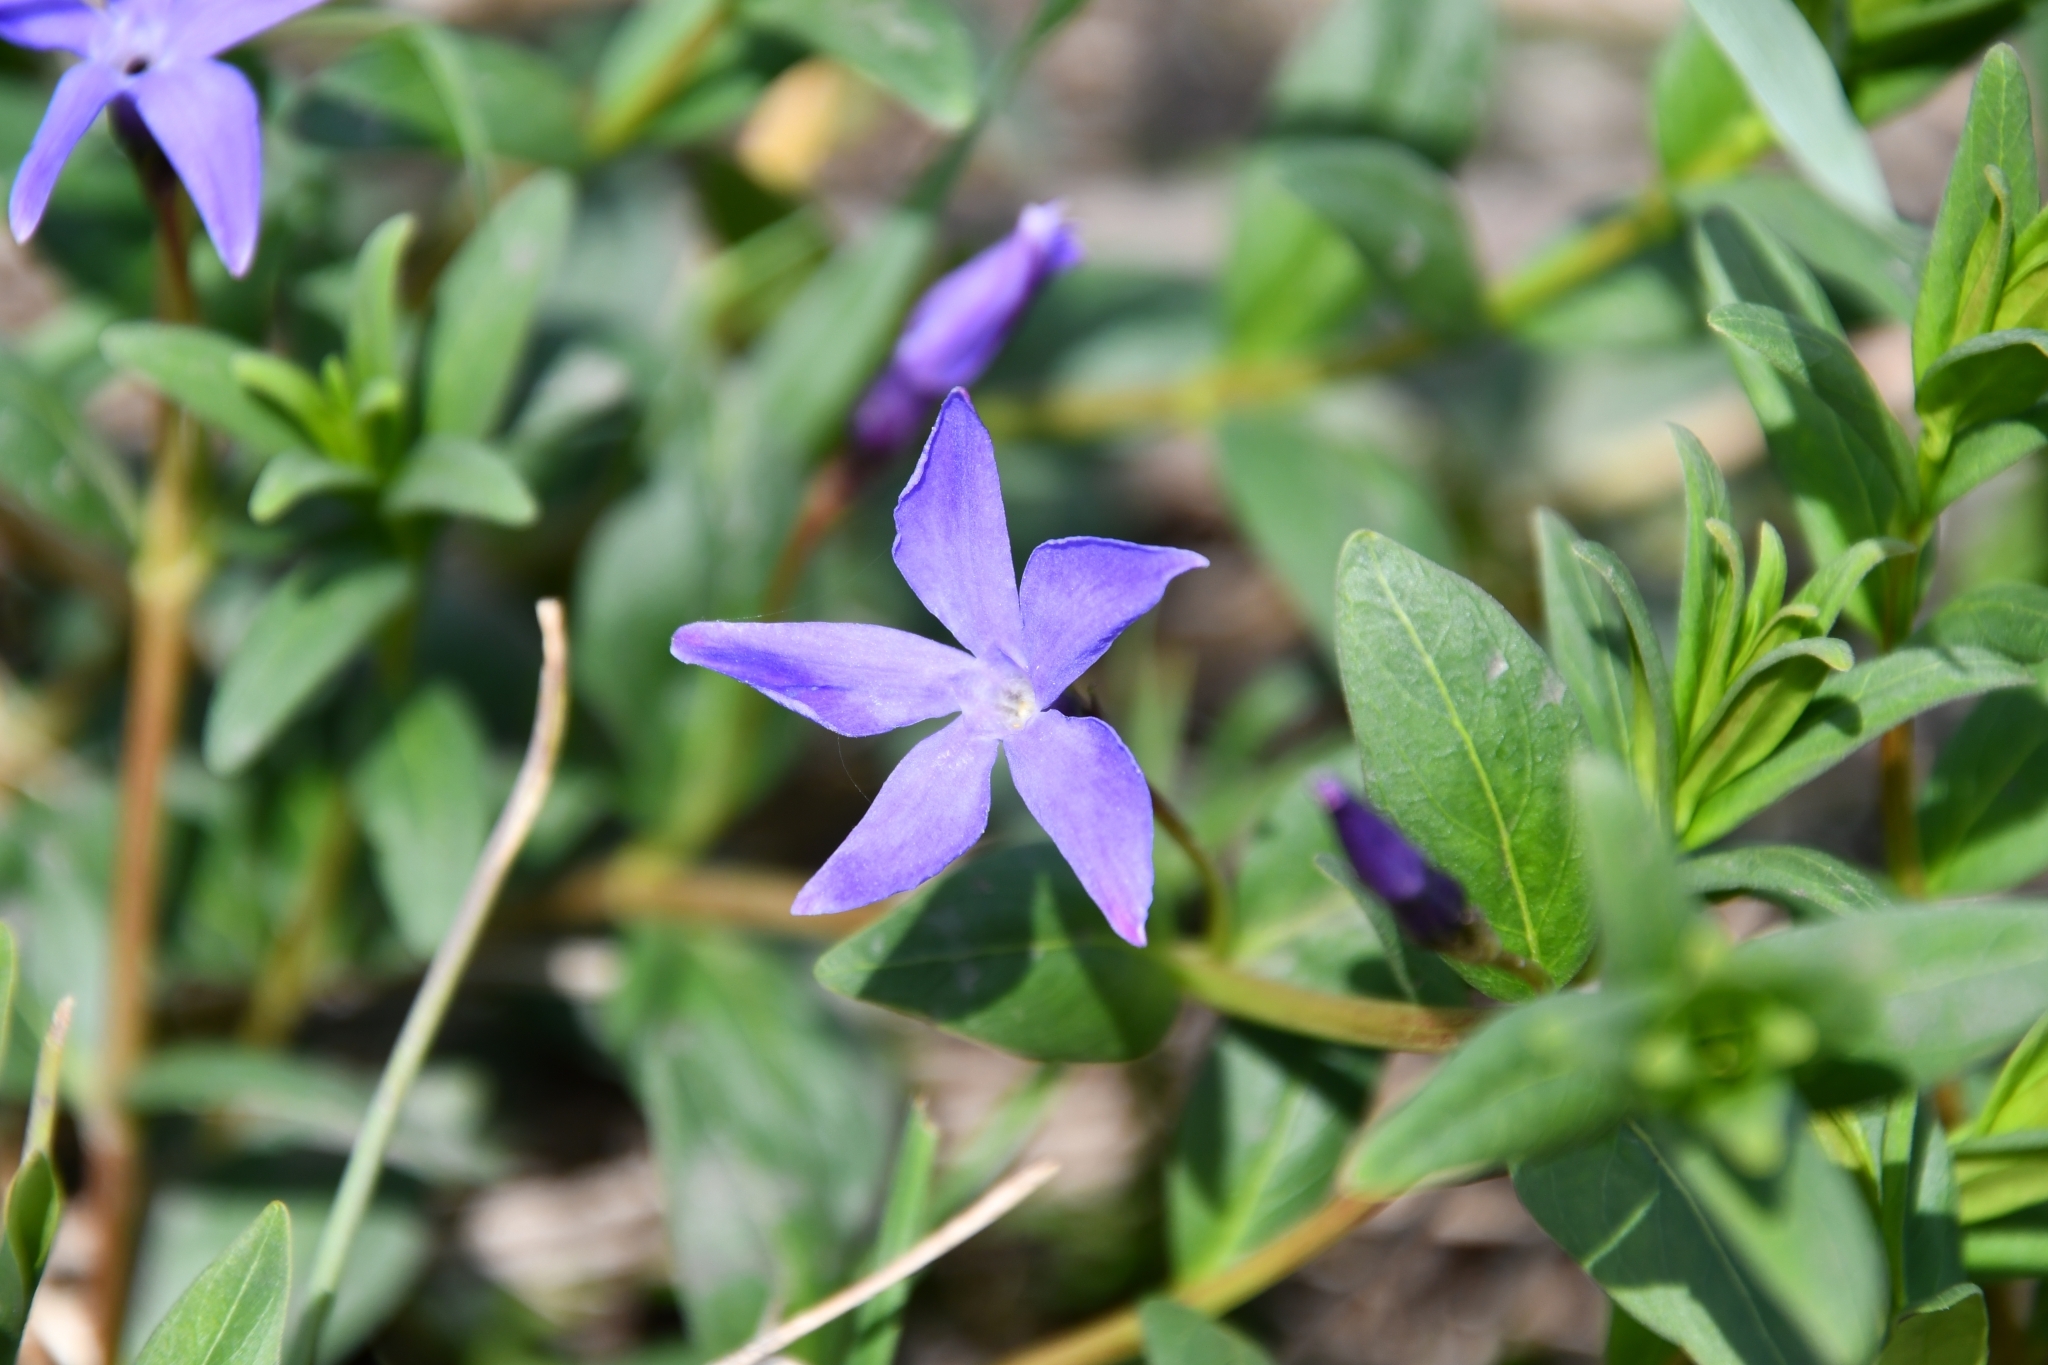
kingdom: Plantae
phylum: Tracheophyta
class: Magnoliopsida
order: Gentianales
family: Apocynaceae
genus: Vinca
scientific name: Vinca herbacea
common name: Herbaceous periwinkle
